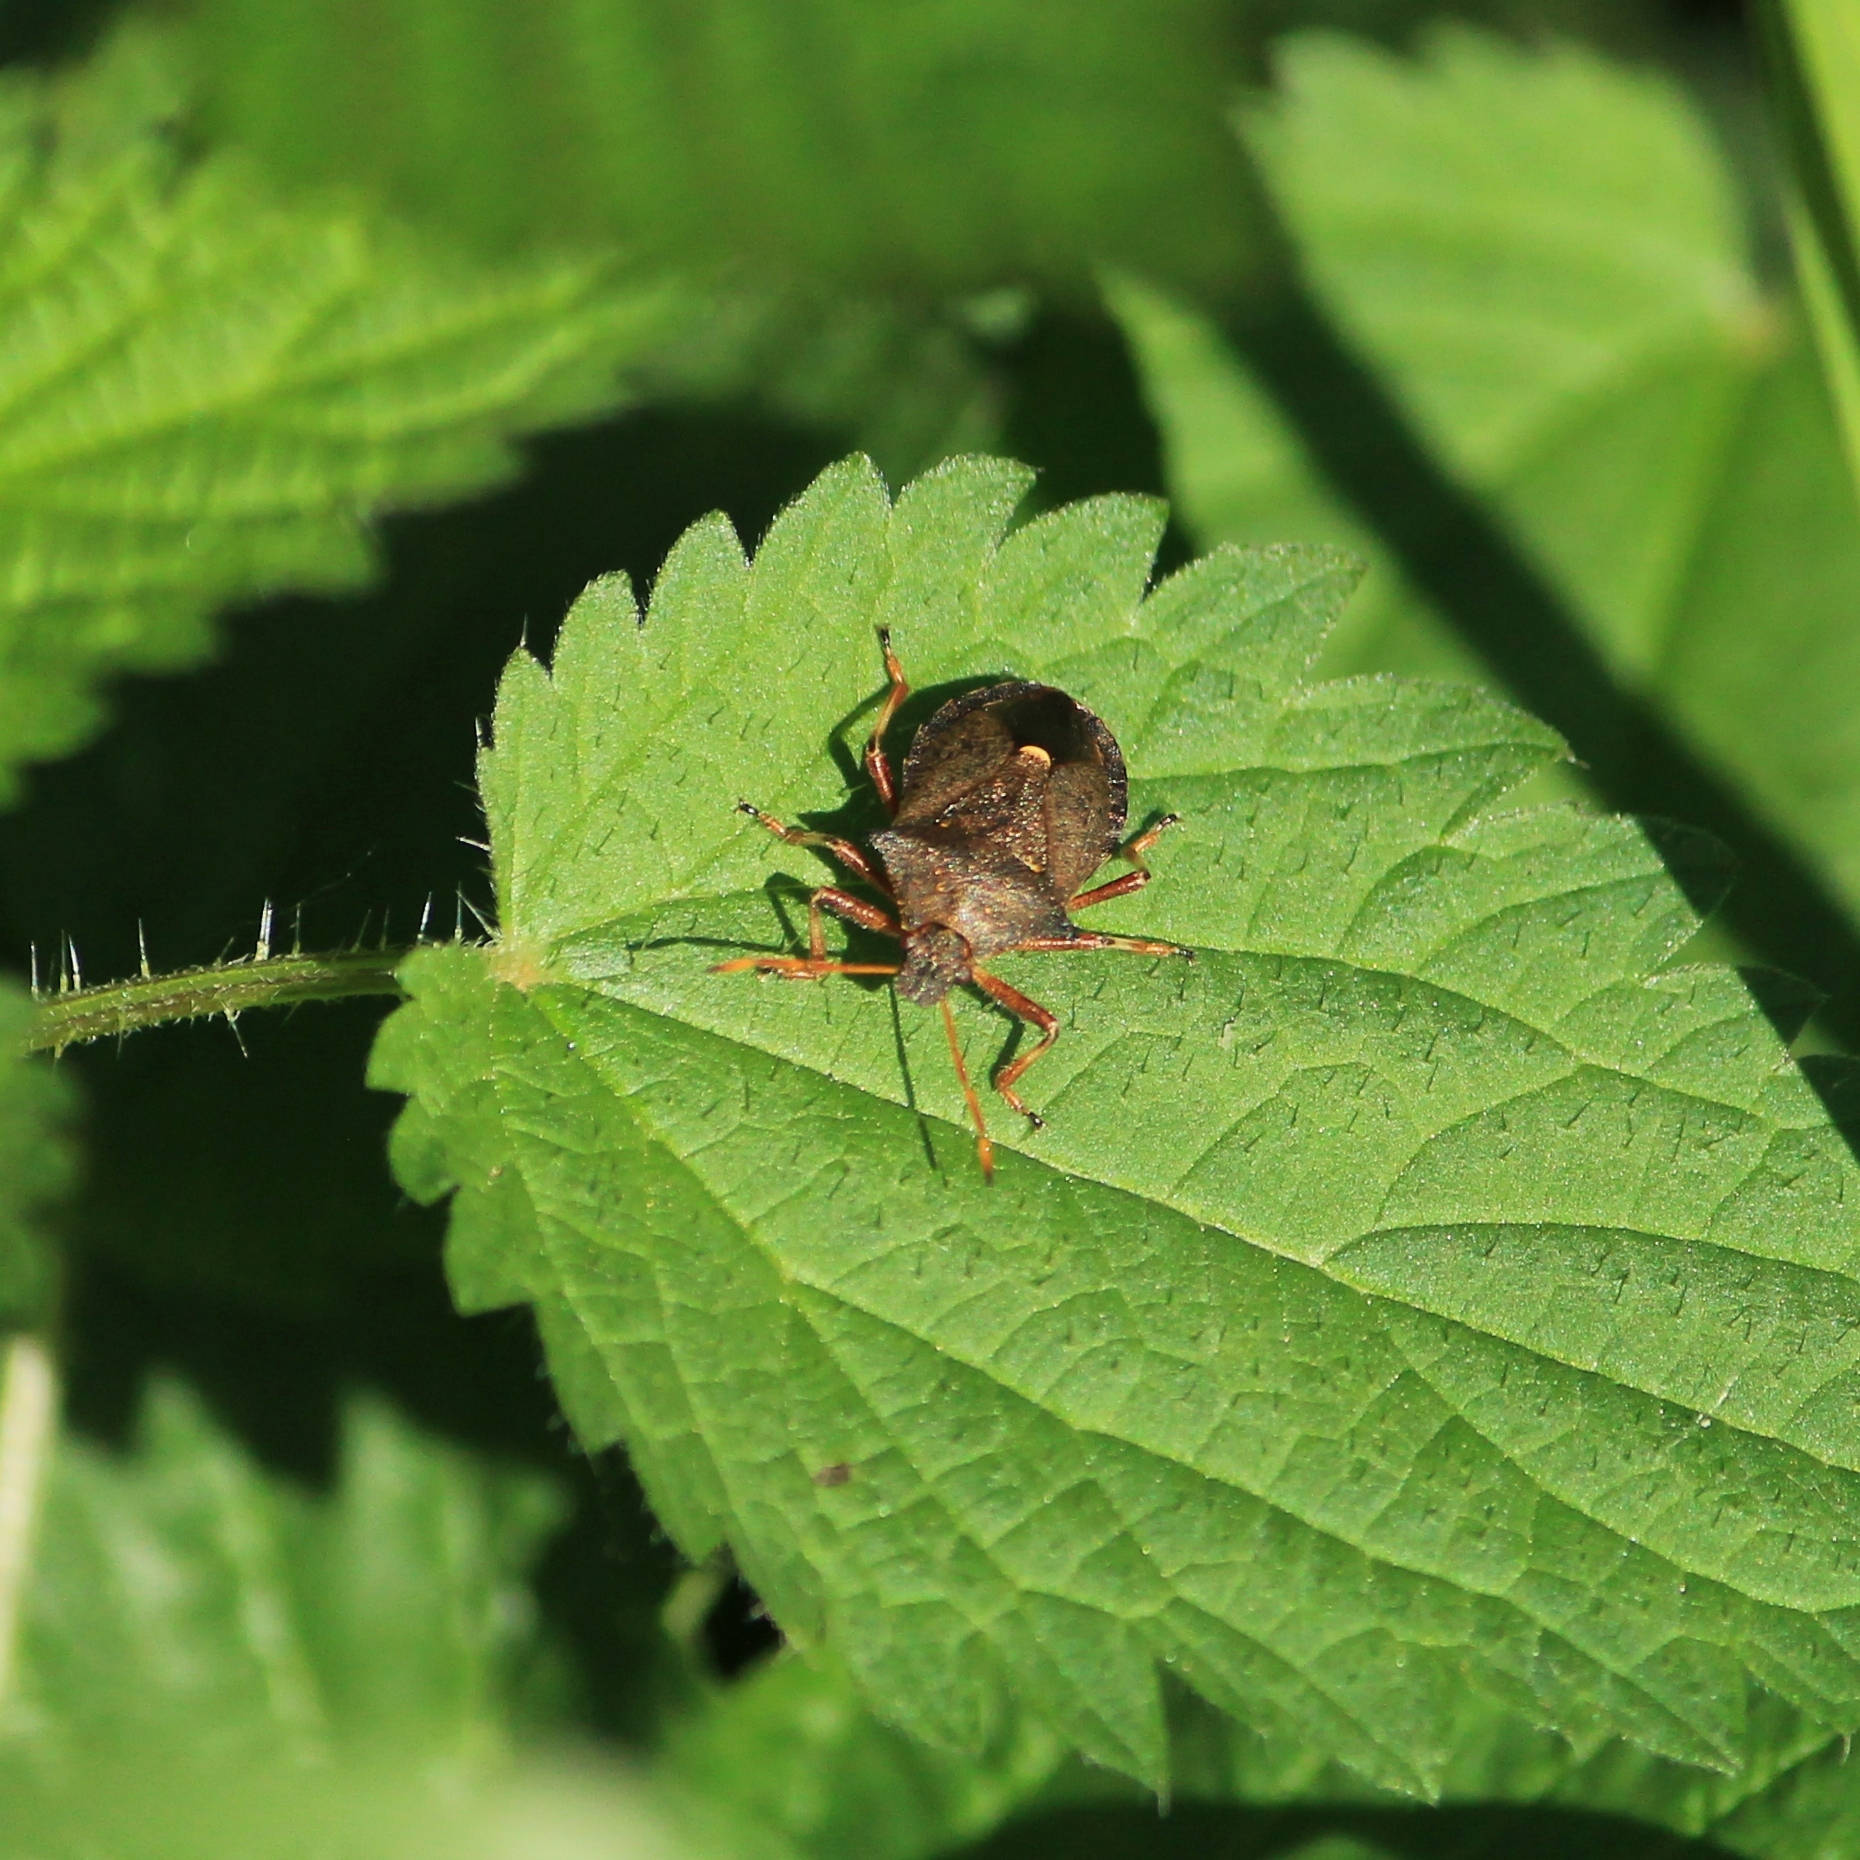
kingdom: Animalia
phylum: Arthropoda
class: Insecta
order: Hemiptera
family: Pentatomidae
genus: Picromerus
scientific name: Picromerus bidens
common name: Spiked shieldbug
